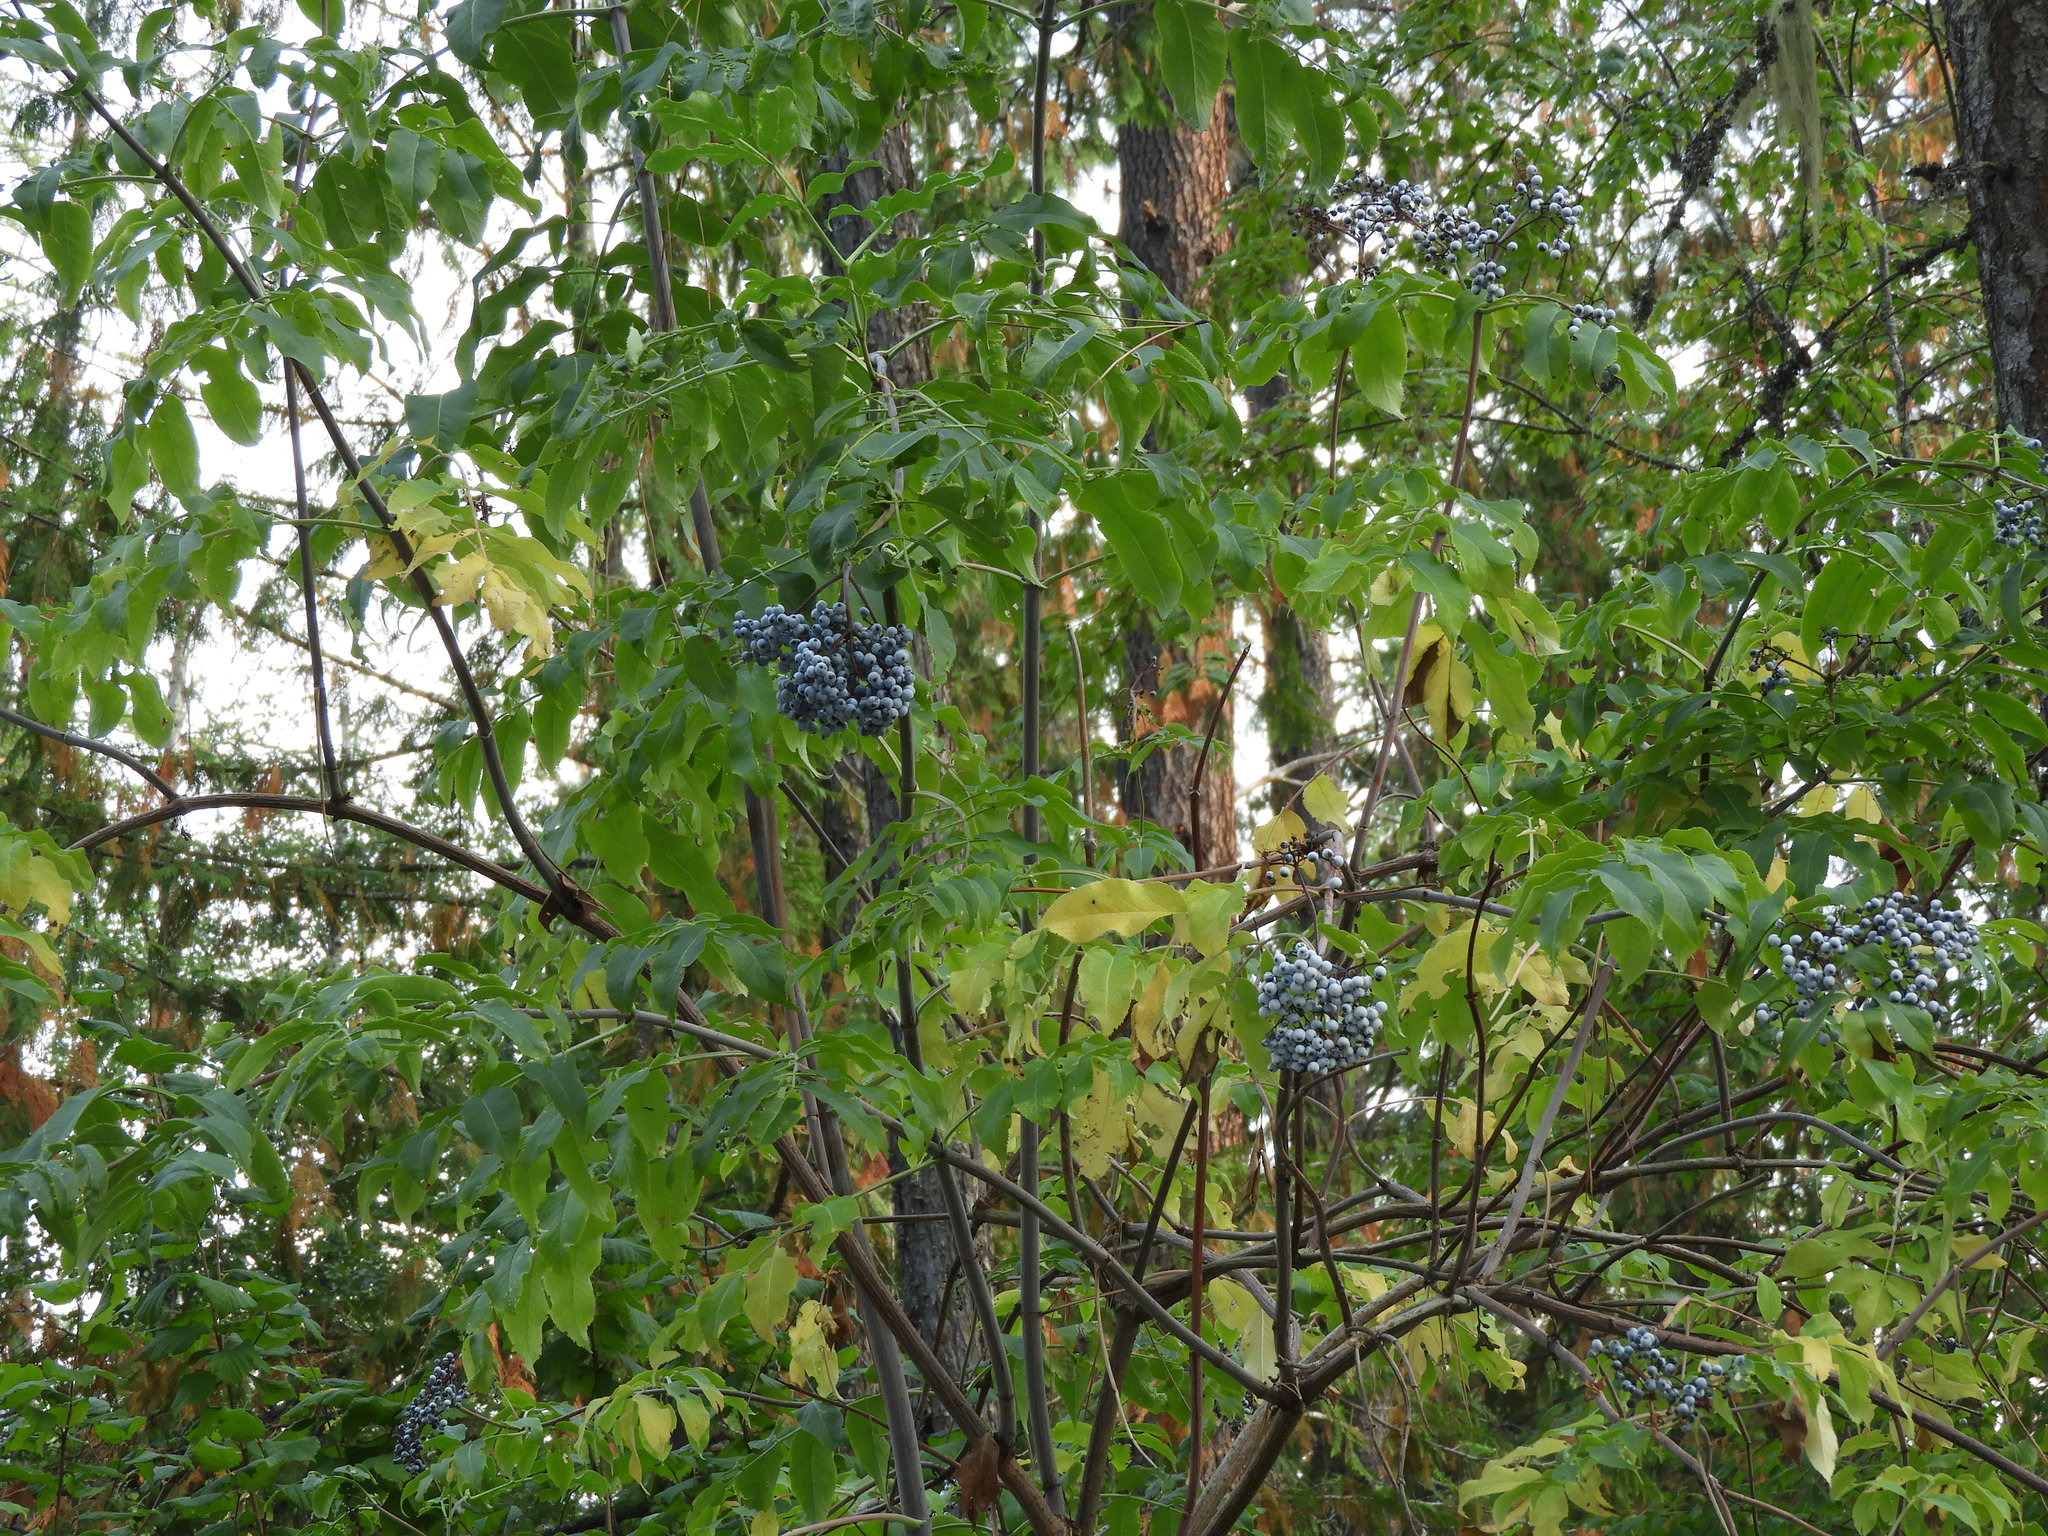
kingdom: Plantae
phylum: Tracheophyta
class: Magnoliopsida
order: Dipsacales
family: Viburnaceae
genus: Sambucus
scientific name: Sambucus cerulea
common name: Blue elder
